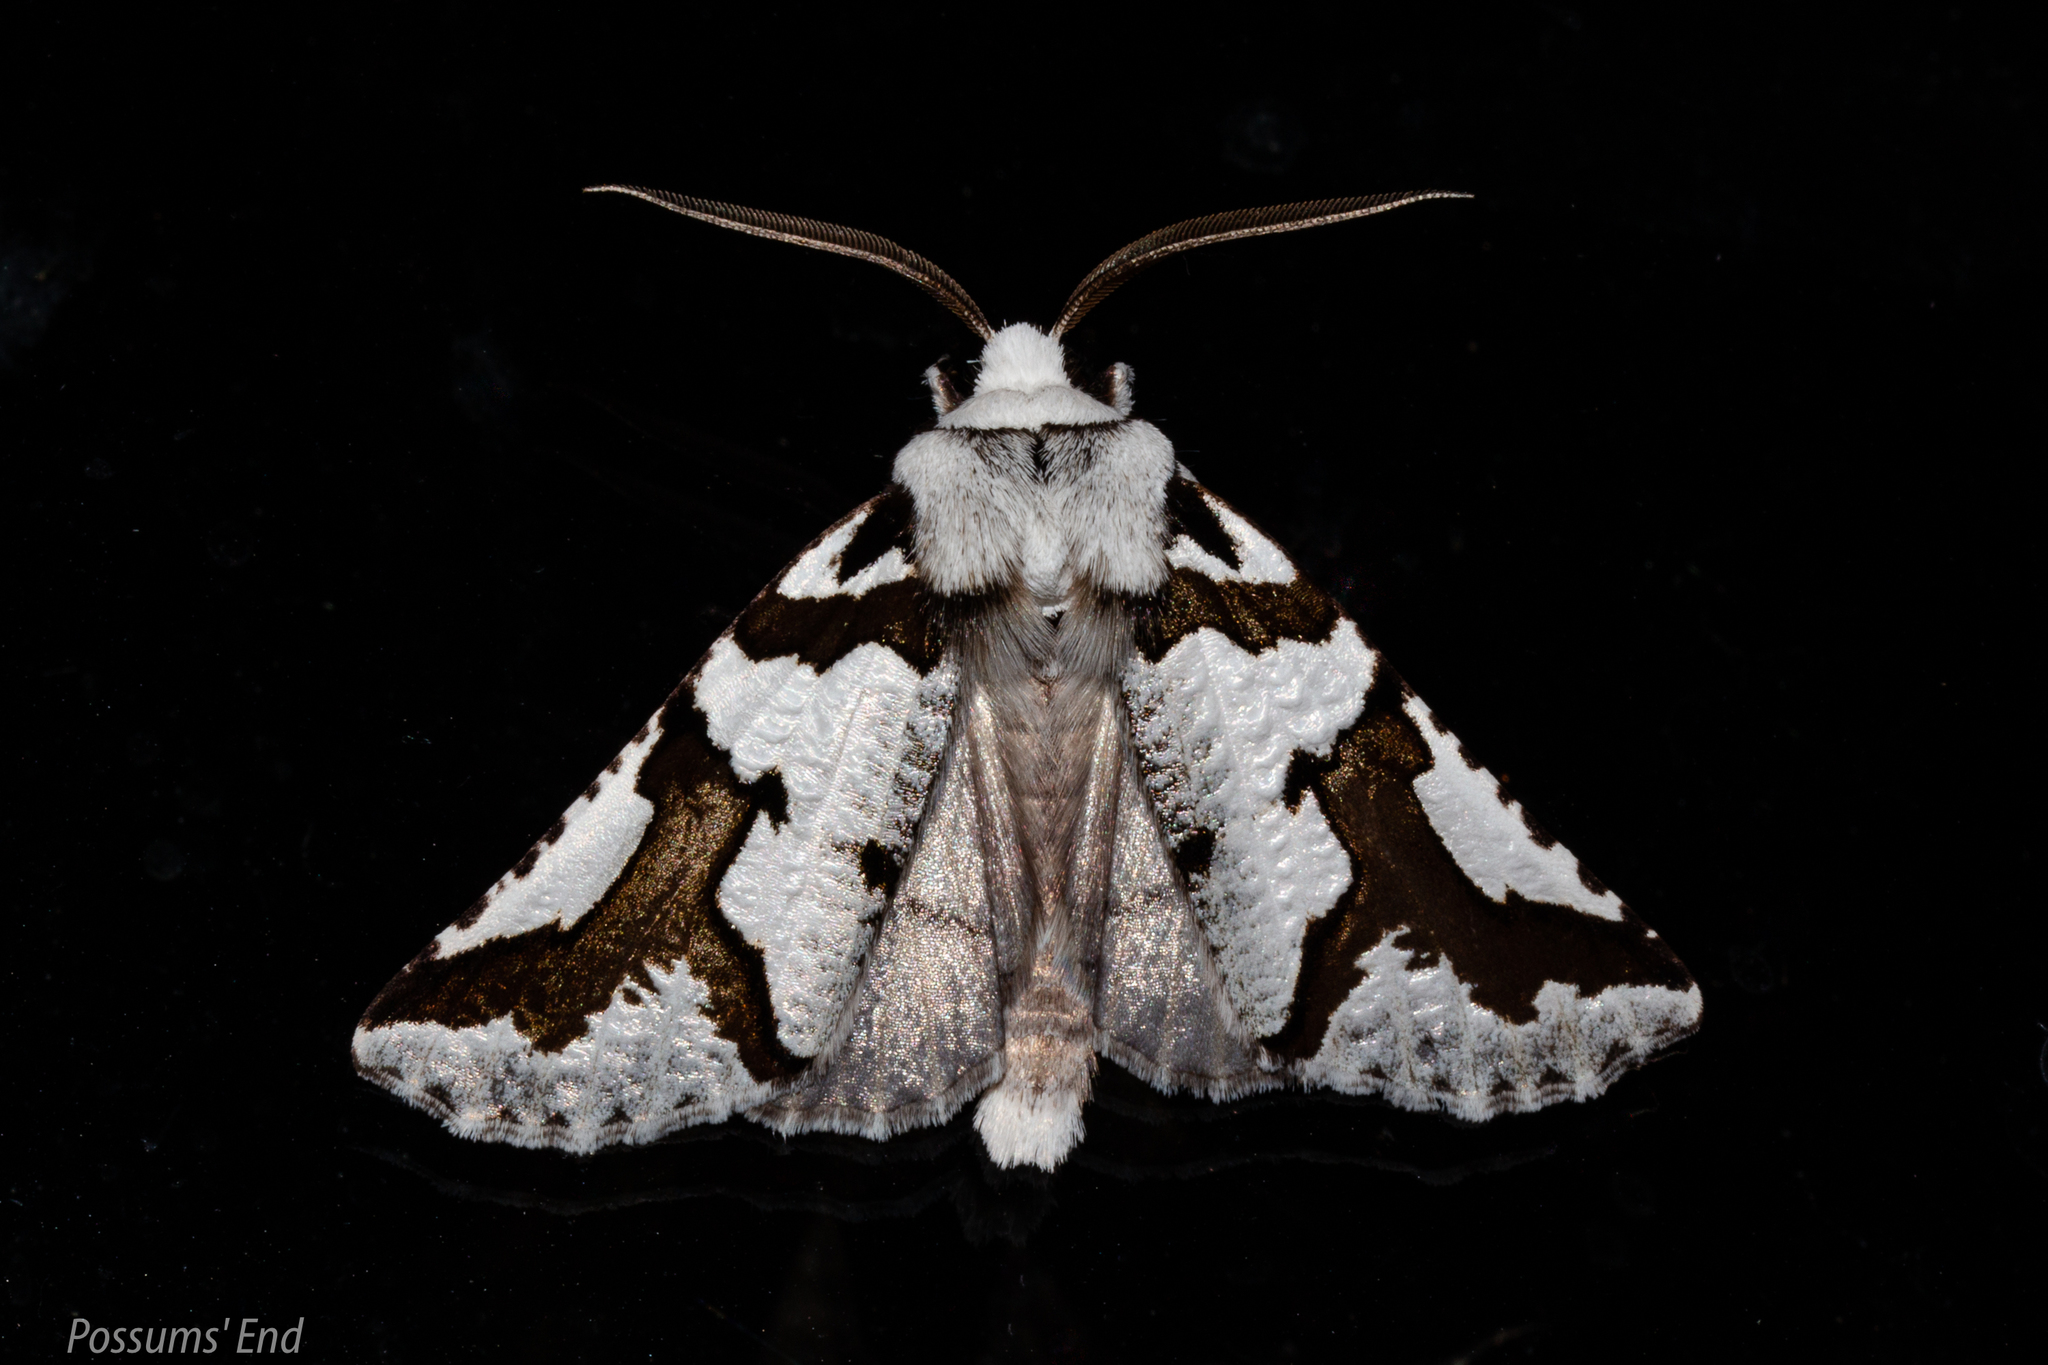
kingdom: Animalia
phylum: Arthropoda
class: Insecta
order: Lepidoptera
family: Geometridae
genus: Declana
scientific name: Declana
